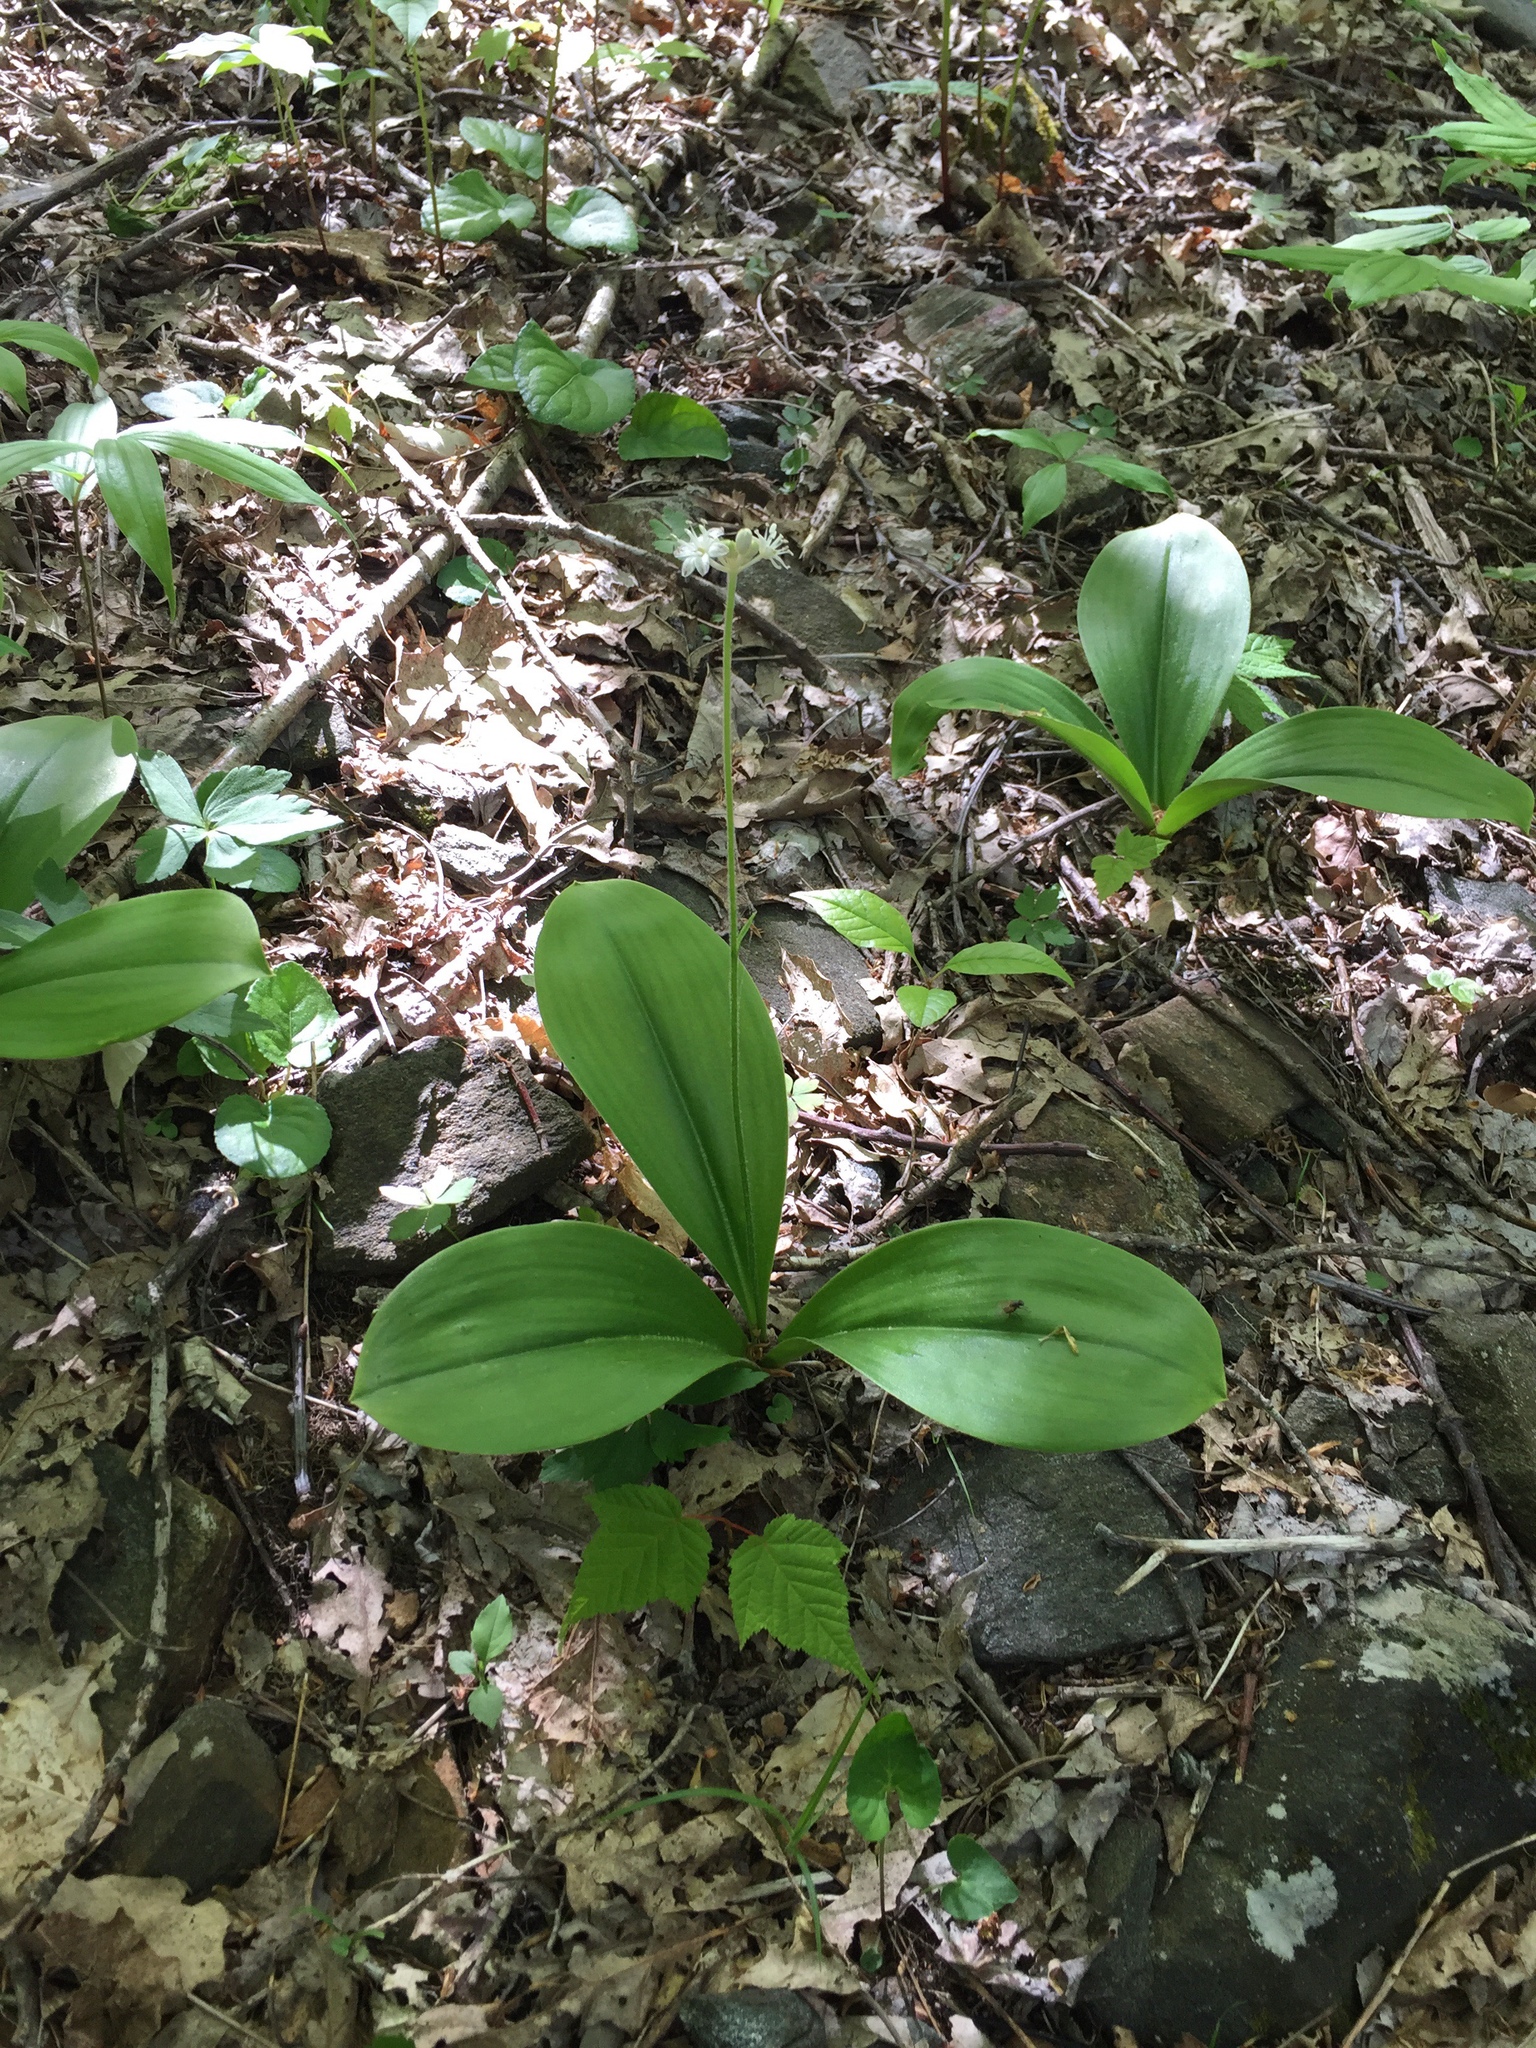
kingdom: Plantae
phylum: Tracheophyta
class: Liliopsida
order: Liliales
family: Liliaceae
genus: Clintonia
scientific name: Clintonia umbellulata
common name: Speckle wood-lily
